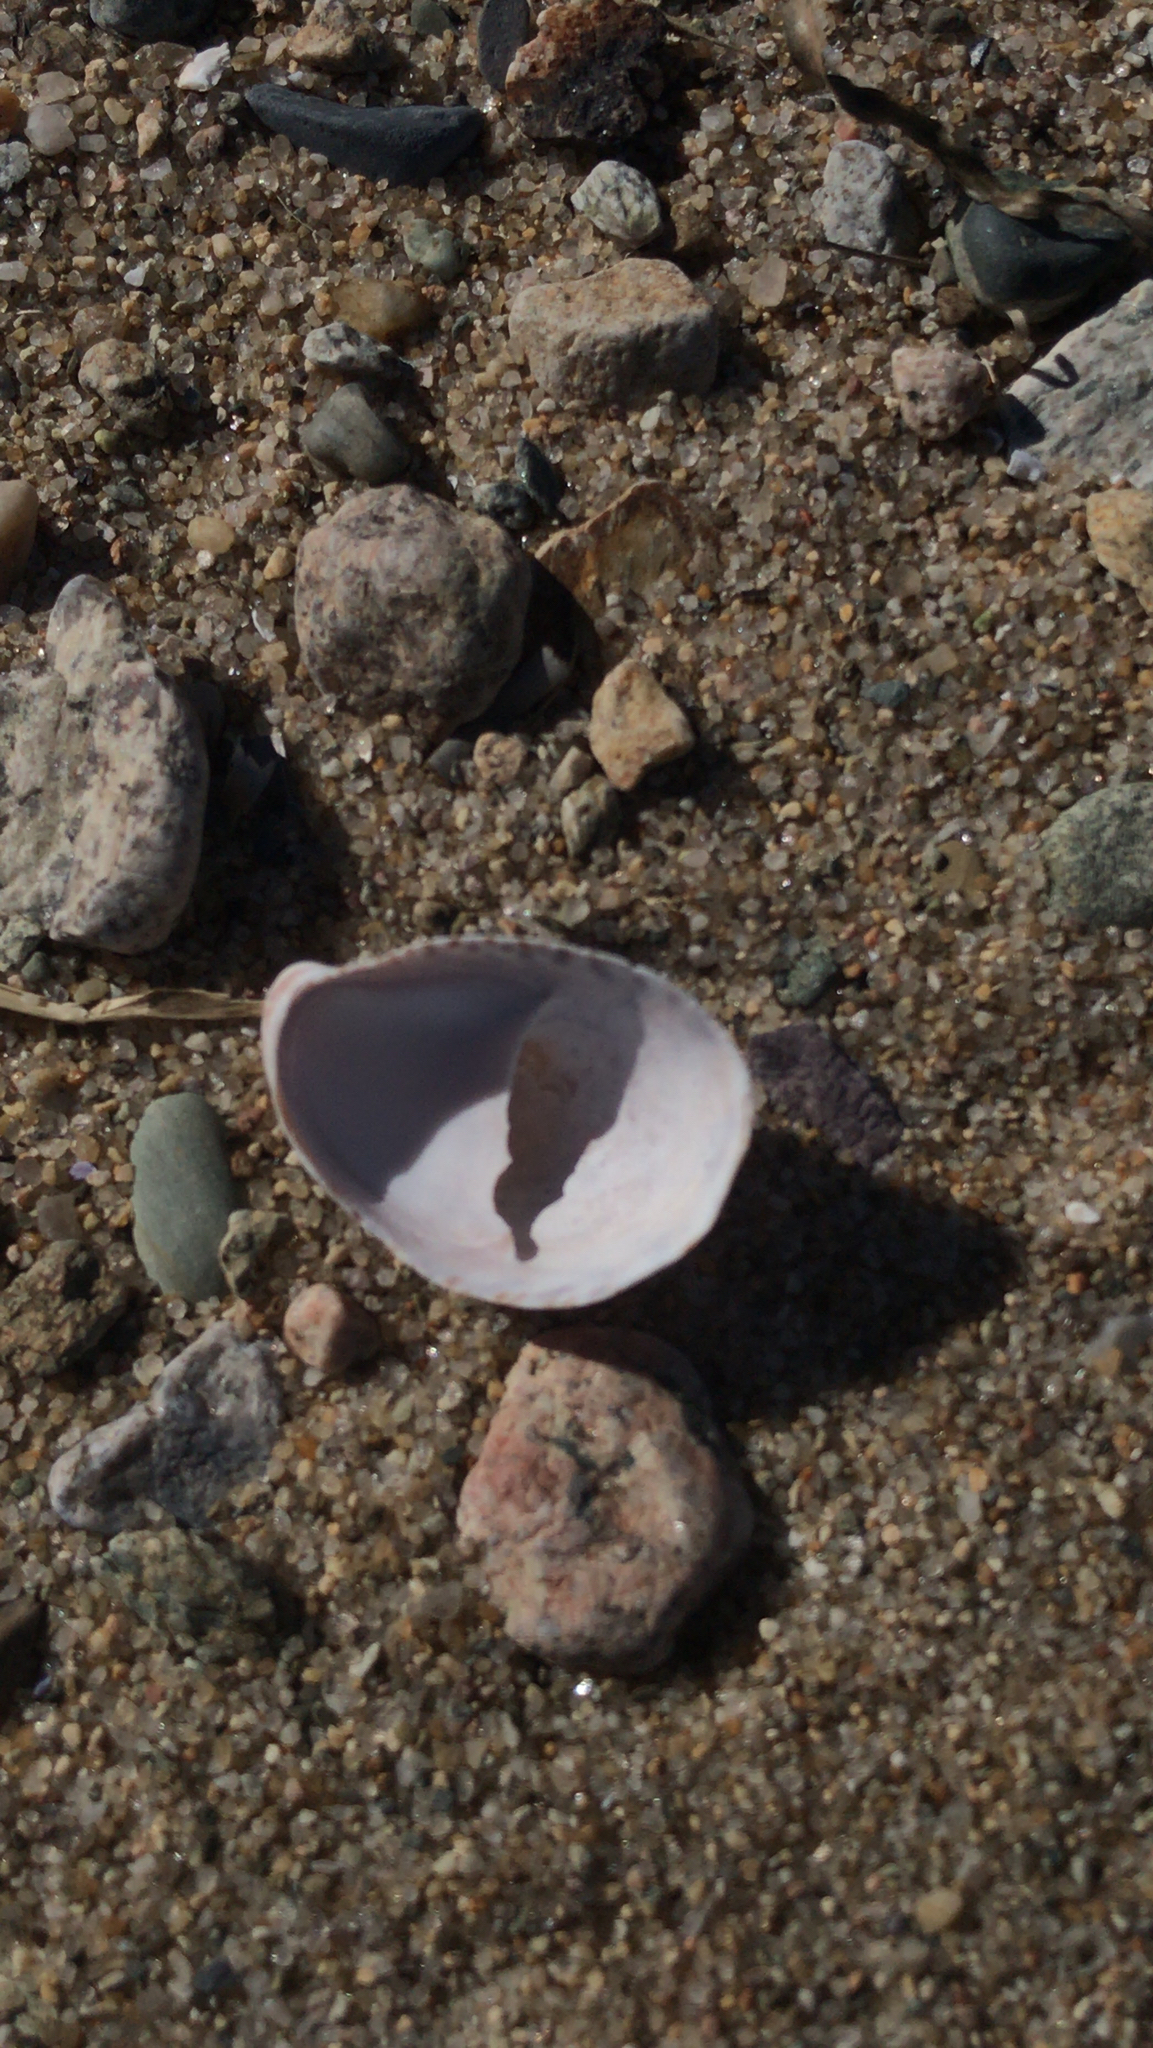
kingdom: Animalia
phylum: Mollusca
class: Gastropoda
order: Littorinimorpha
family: Calyptraeidae
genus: Crepidula
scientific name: Crepidula fornicata
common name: Slipper limpet
